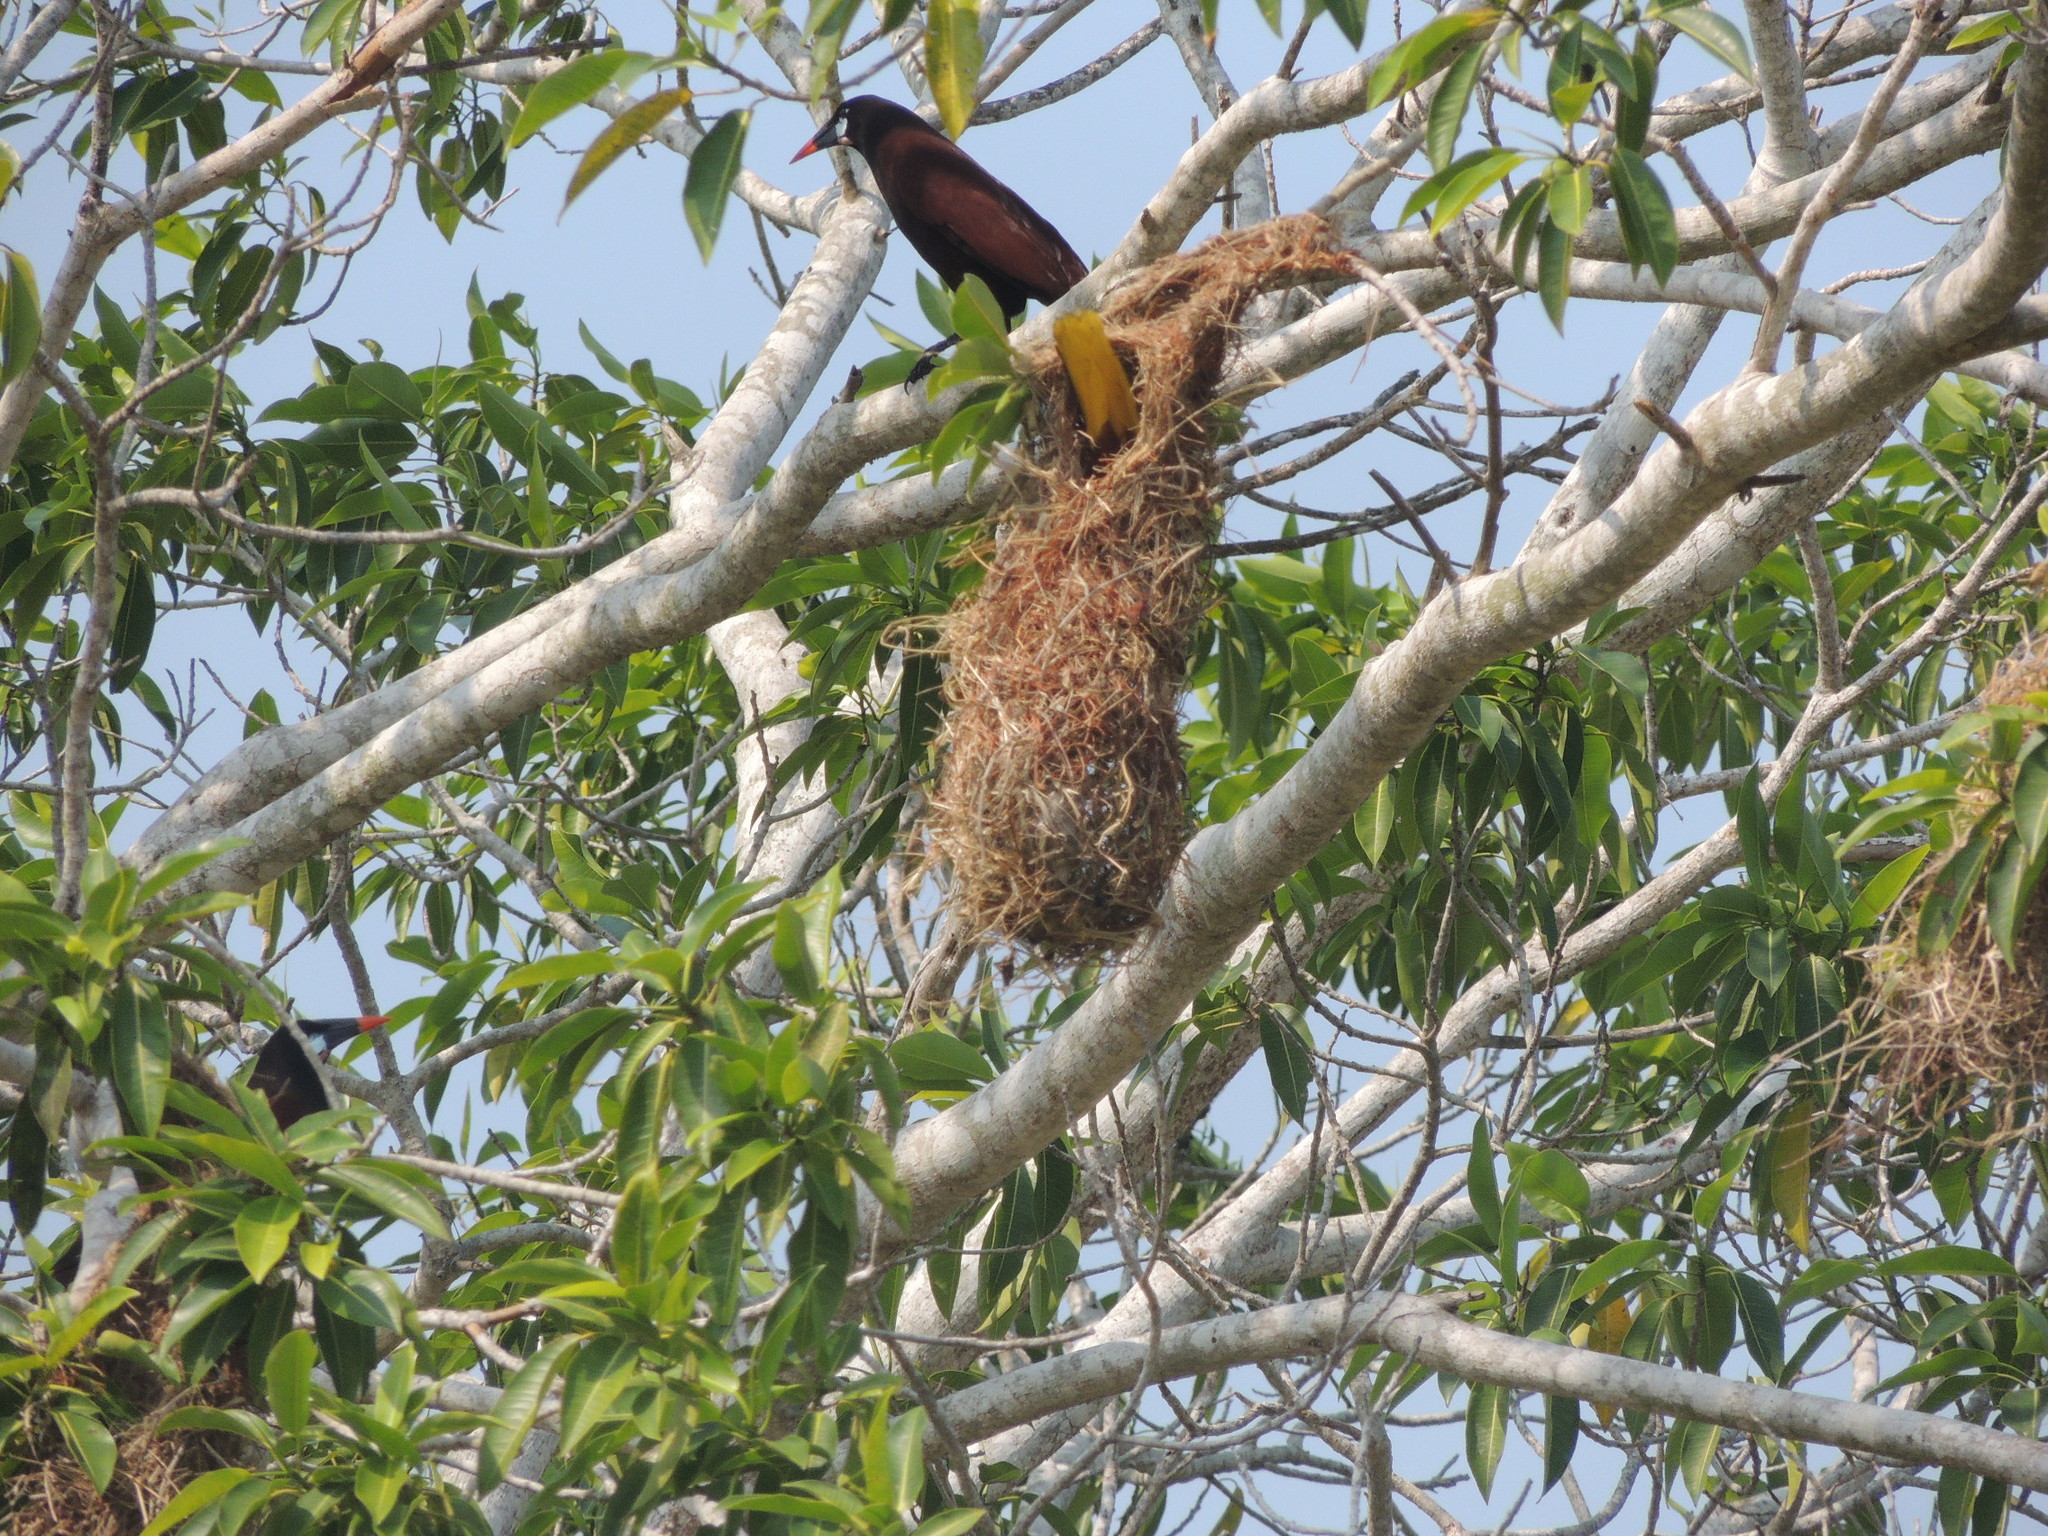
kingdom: Animalia
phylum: Chordata
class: Aves
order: Passeriformes
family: Icteridae
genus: Psarocolius
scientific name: Psarocolius montezuma
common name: Montezuma oropendola
